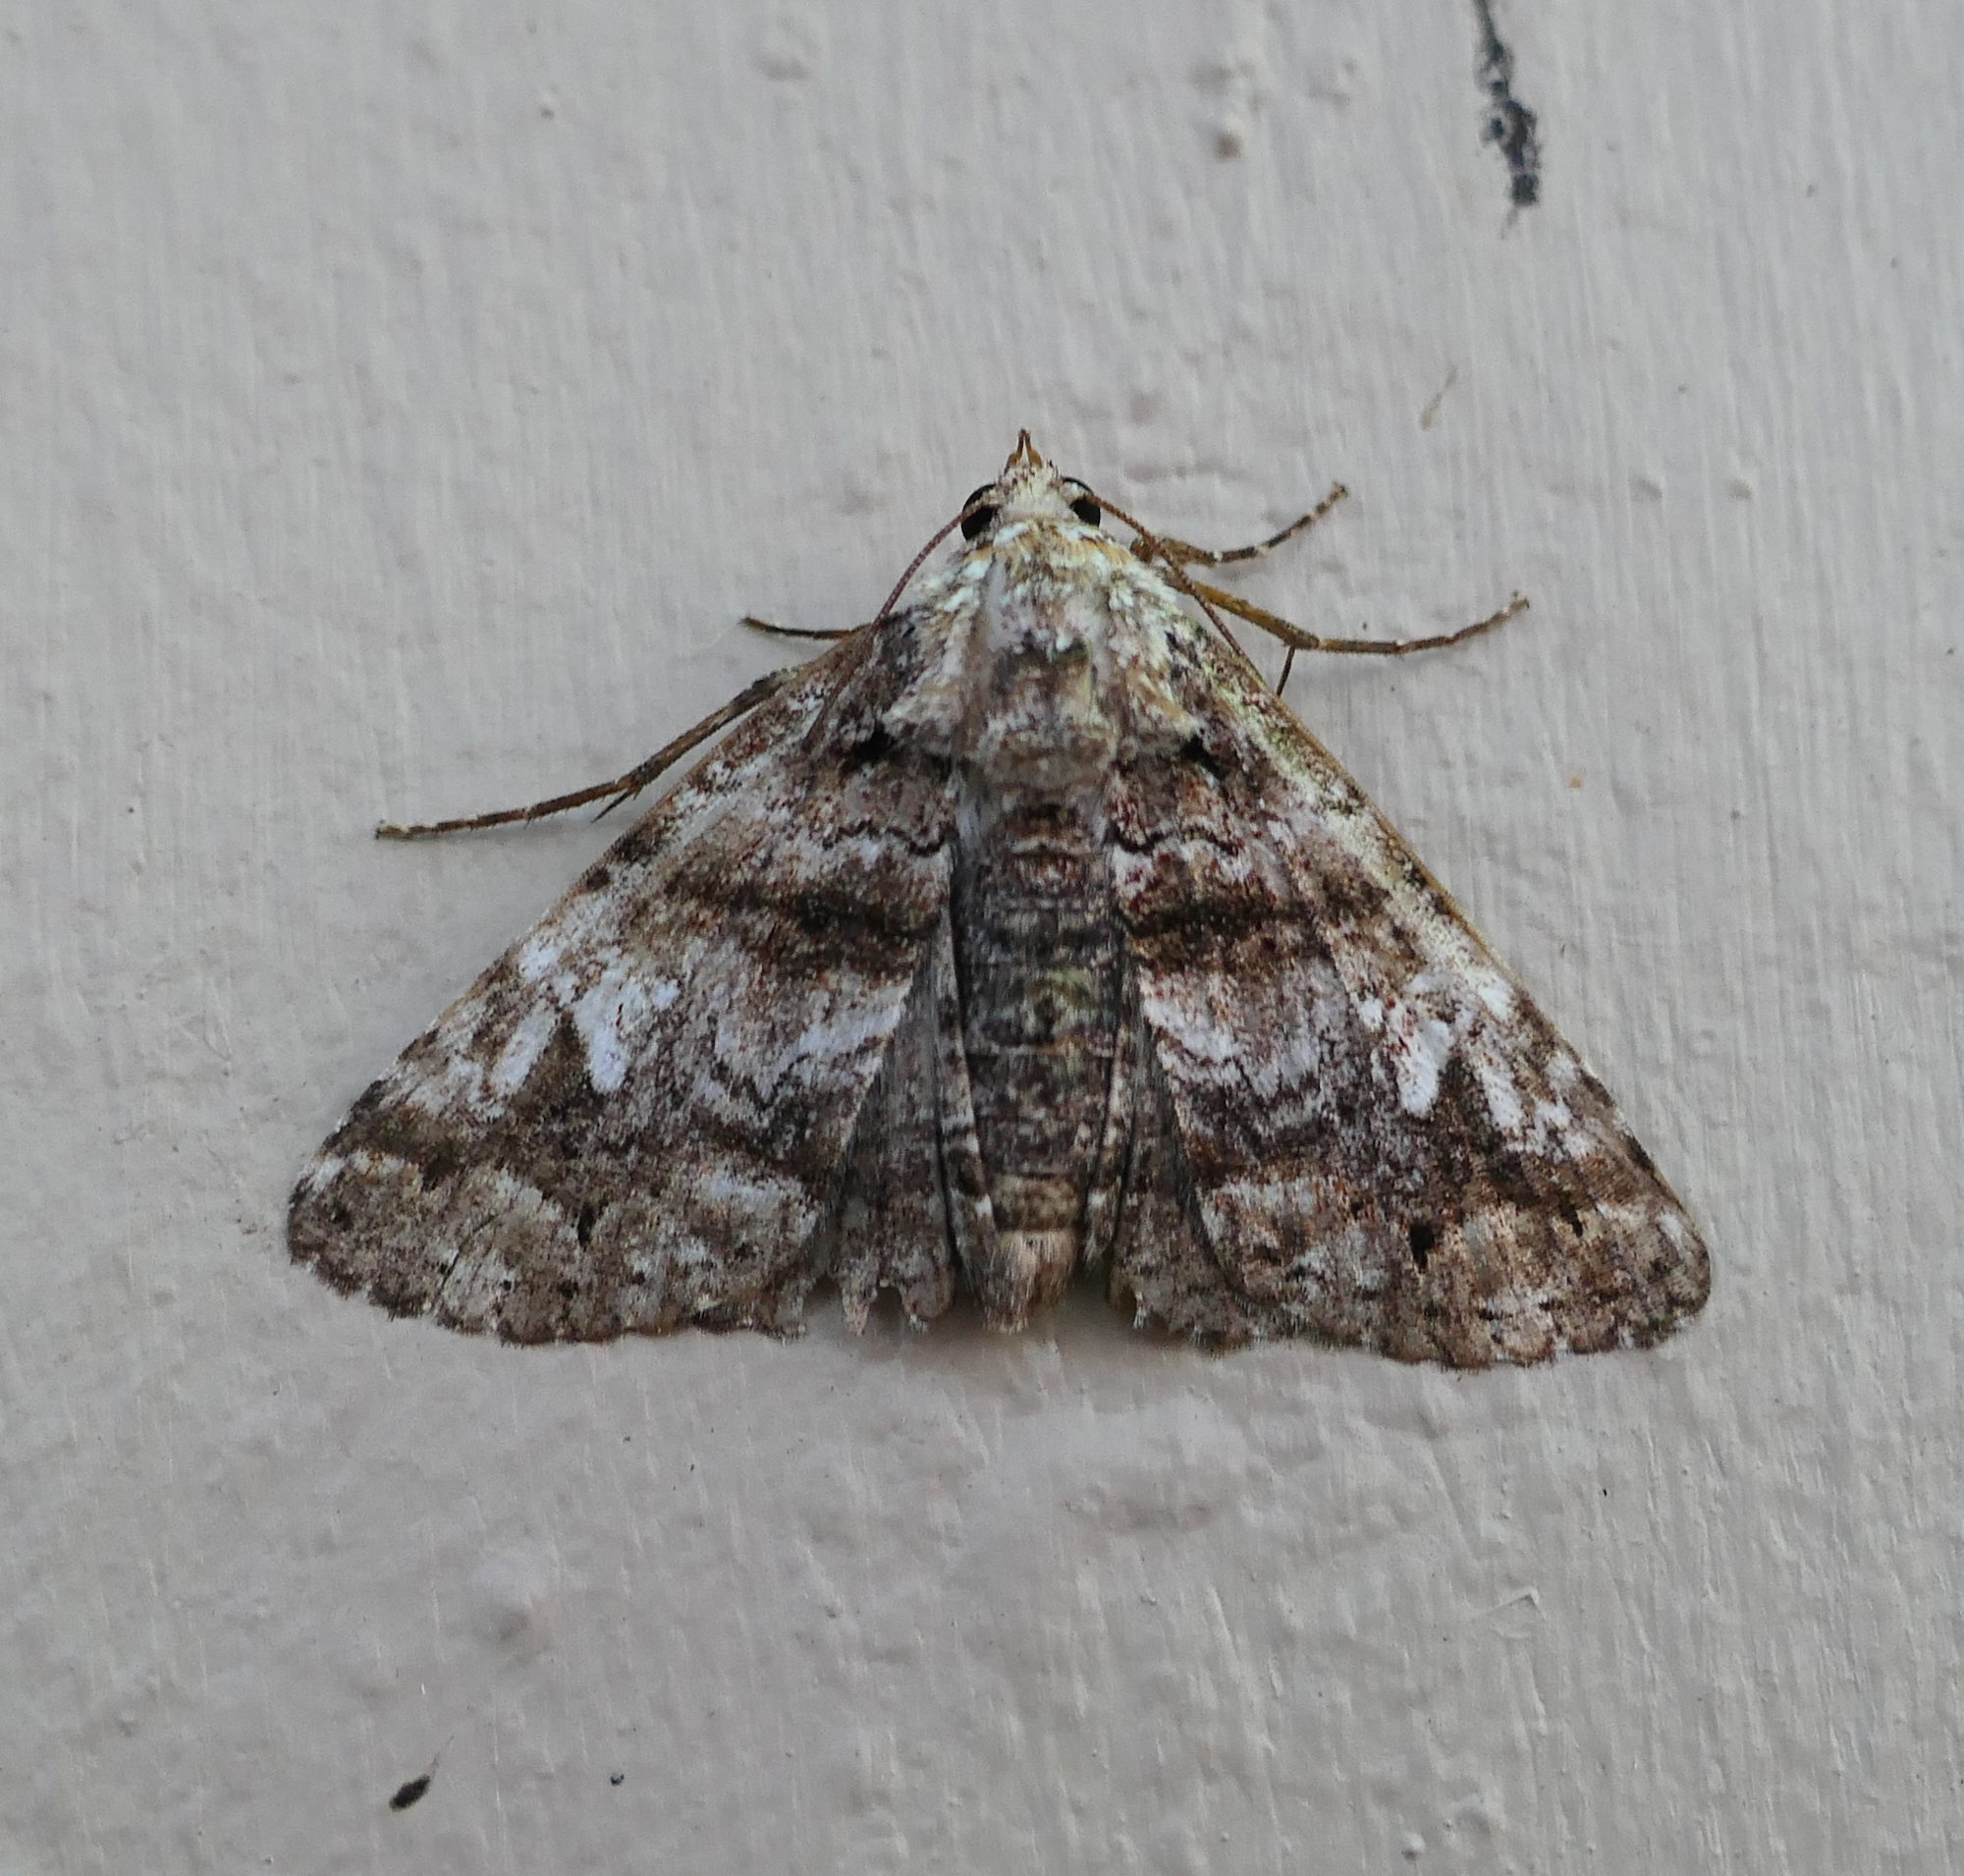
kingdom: Animalia
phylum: Arthropoda
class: Insecta
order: Lepidoptera
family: Erebidae
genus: Metria
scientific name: Metria amella
